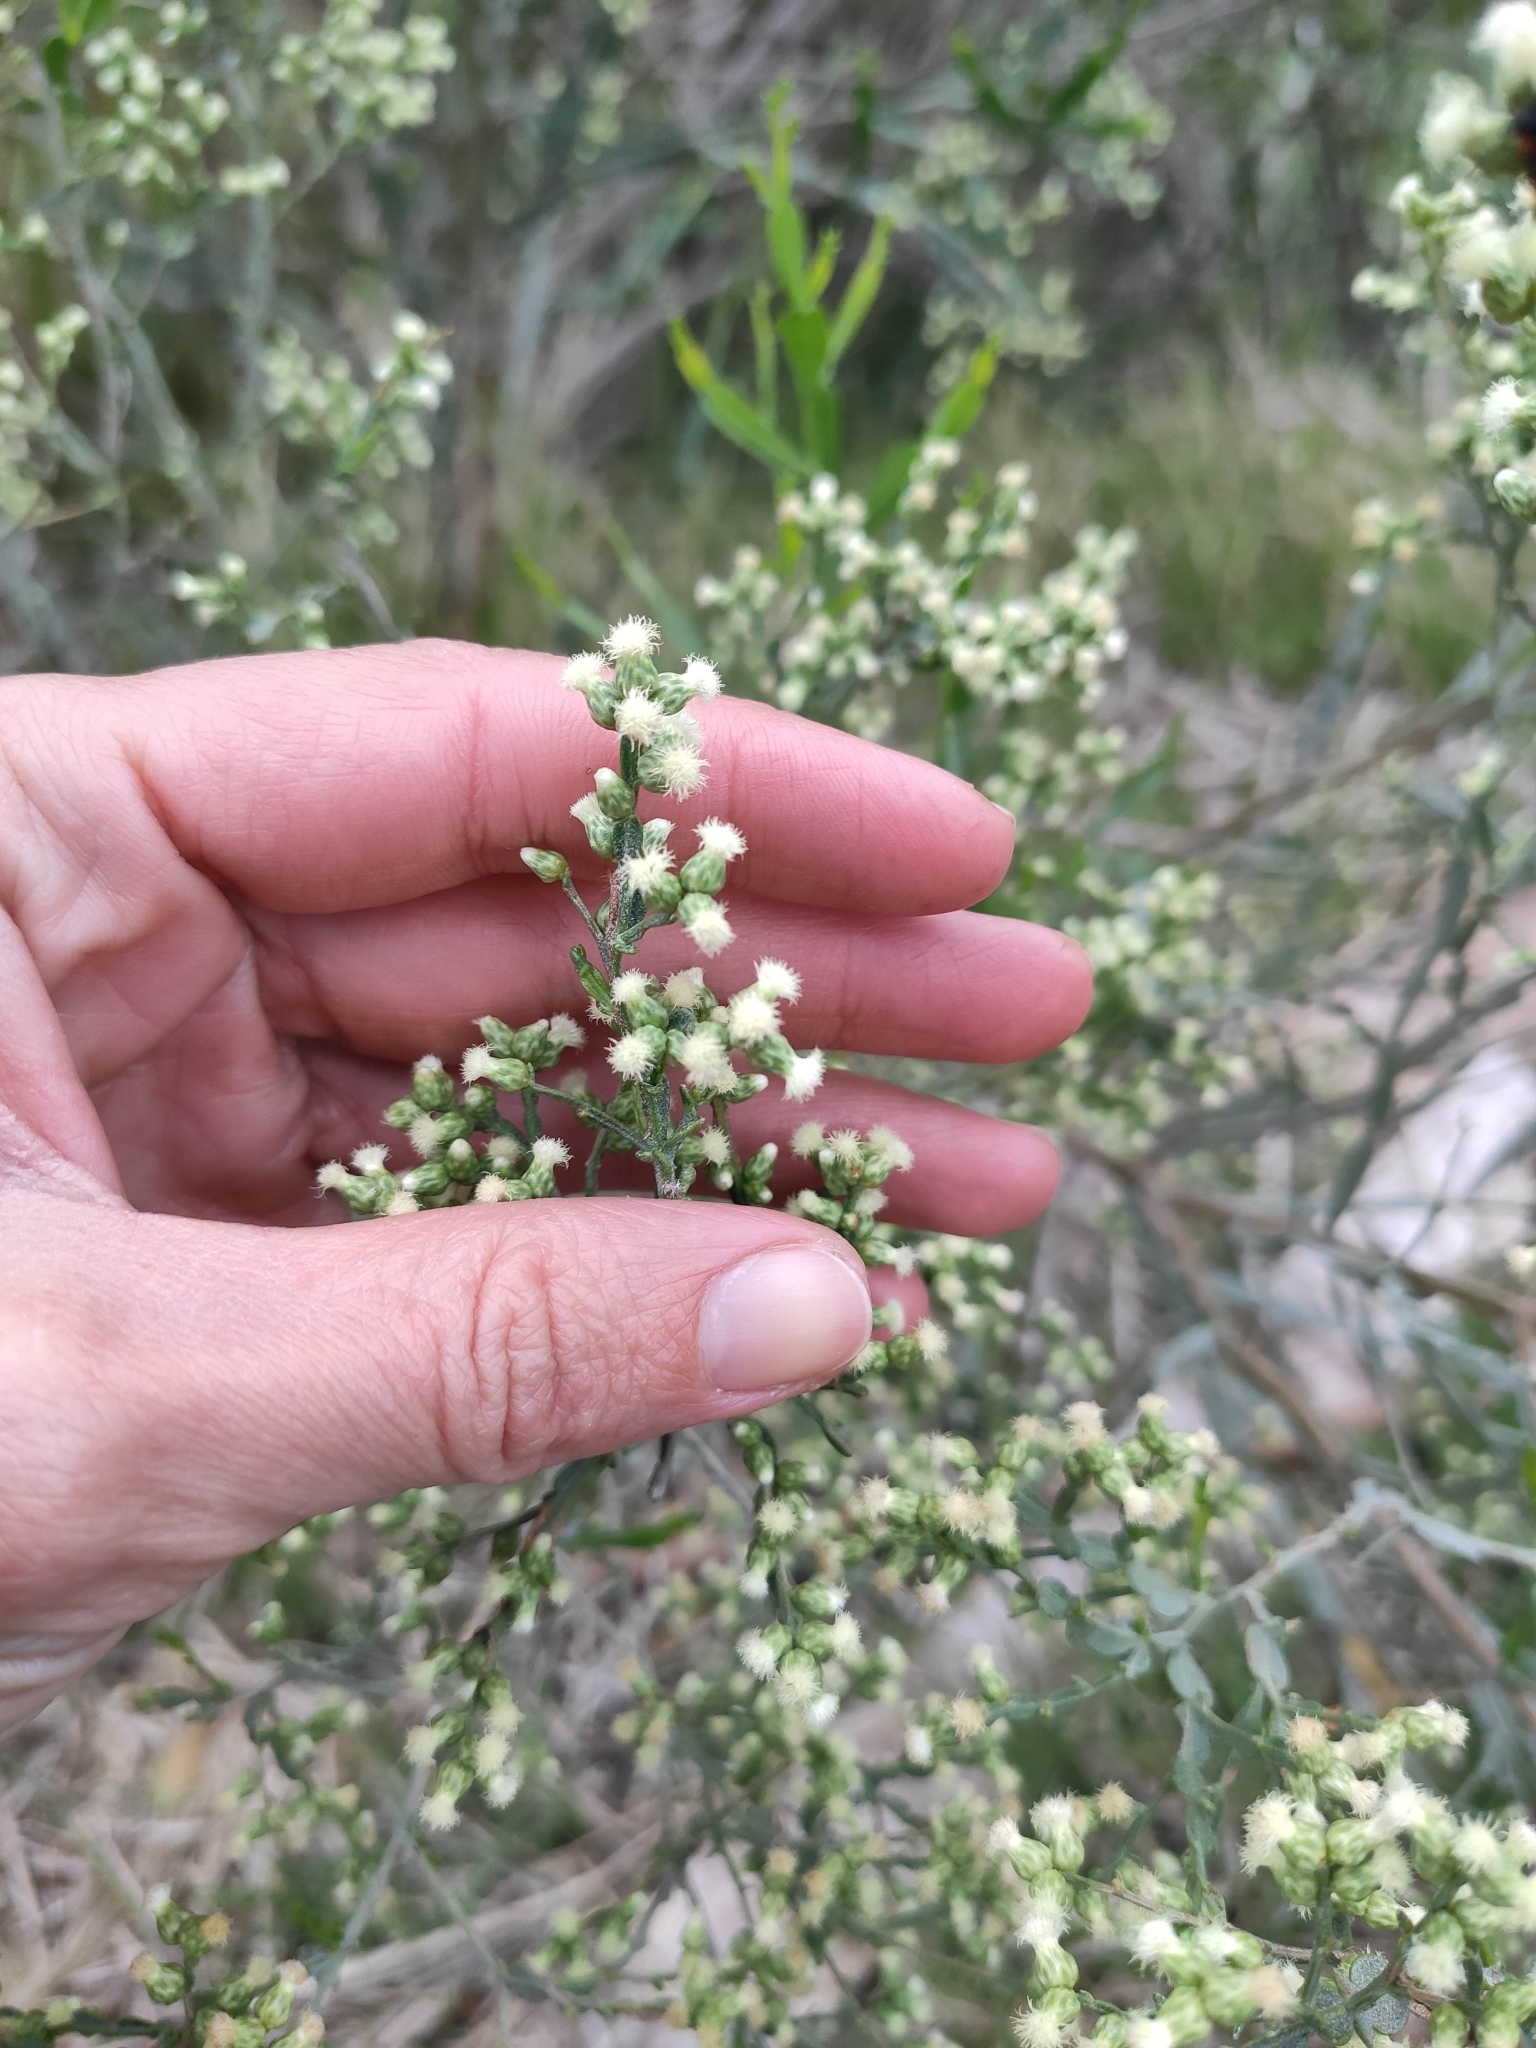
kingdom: Plantae
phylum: Tracheophyta
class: Magnoliopsida
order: Asterales
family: Asteraceae
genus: Baccharis
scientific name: Baccharis articulata
